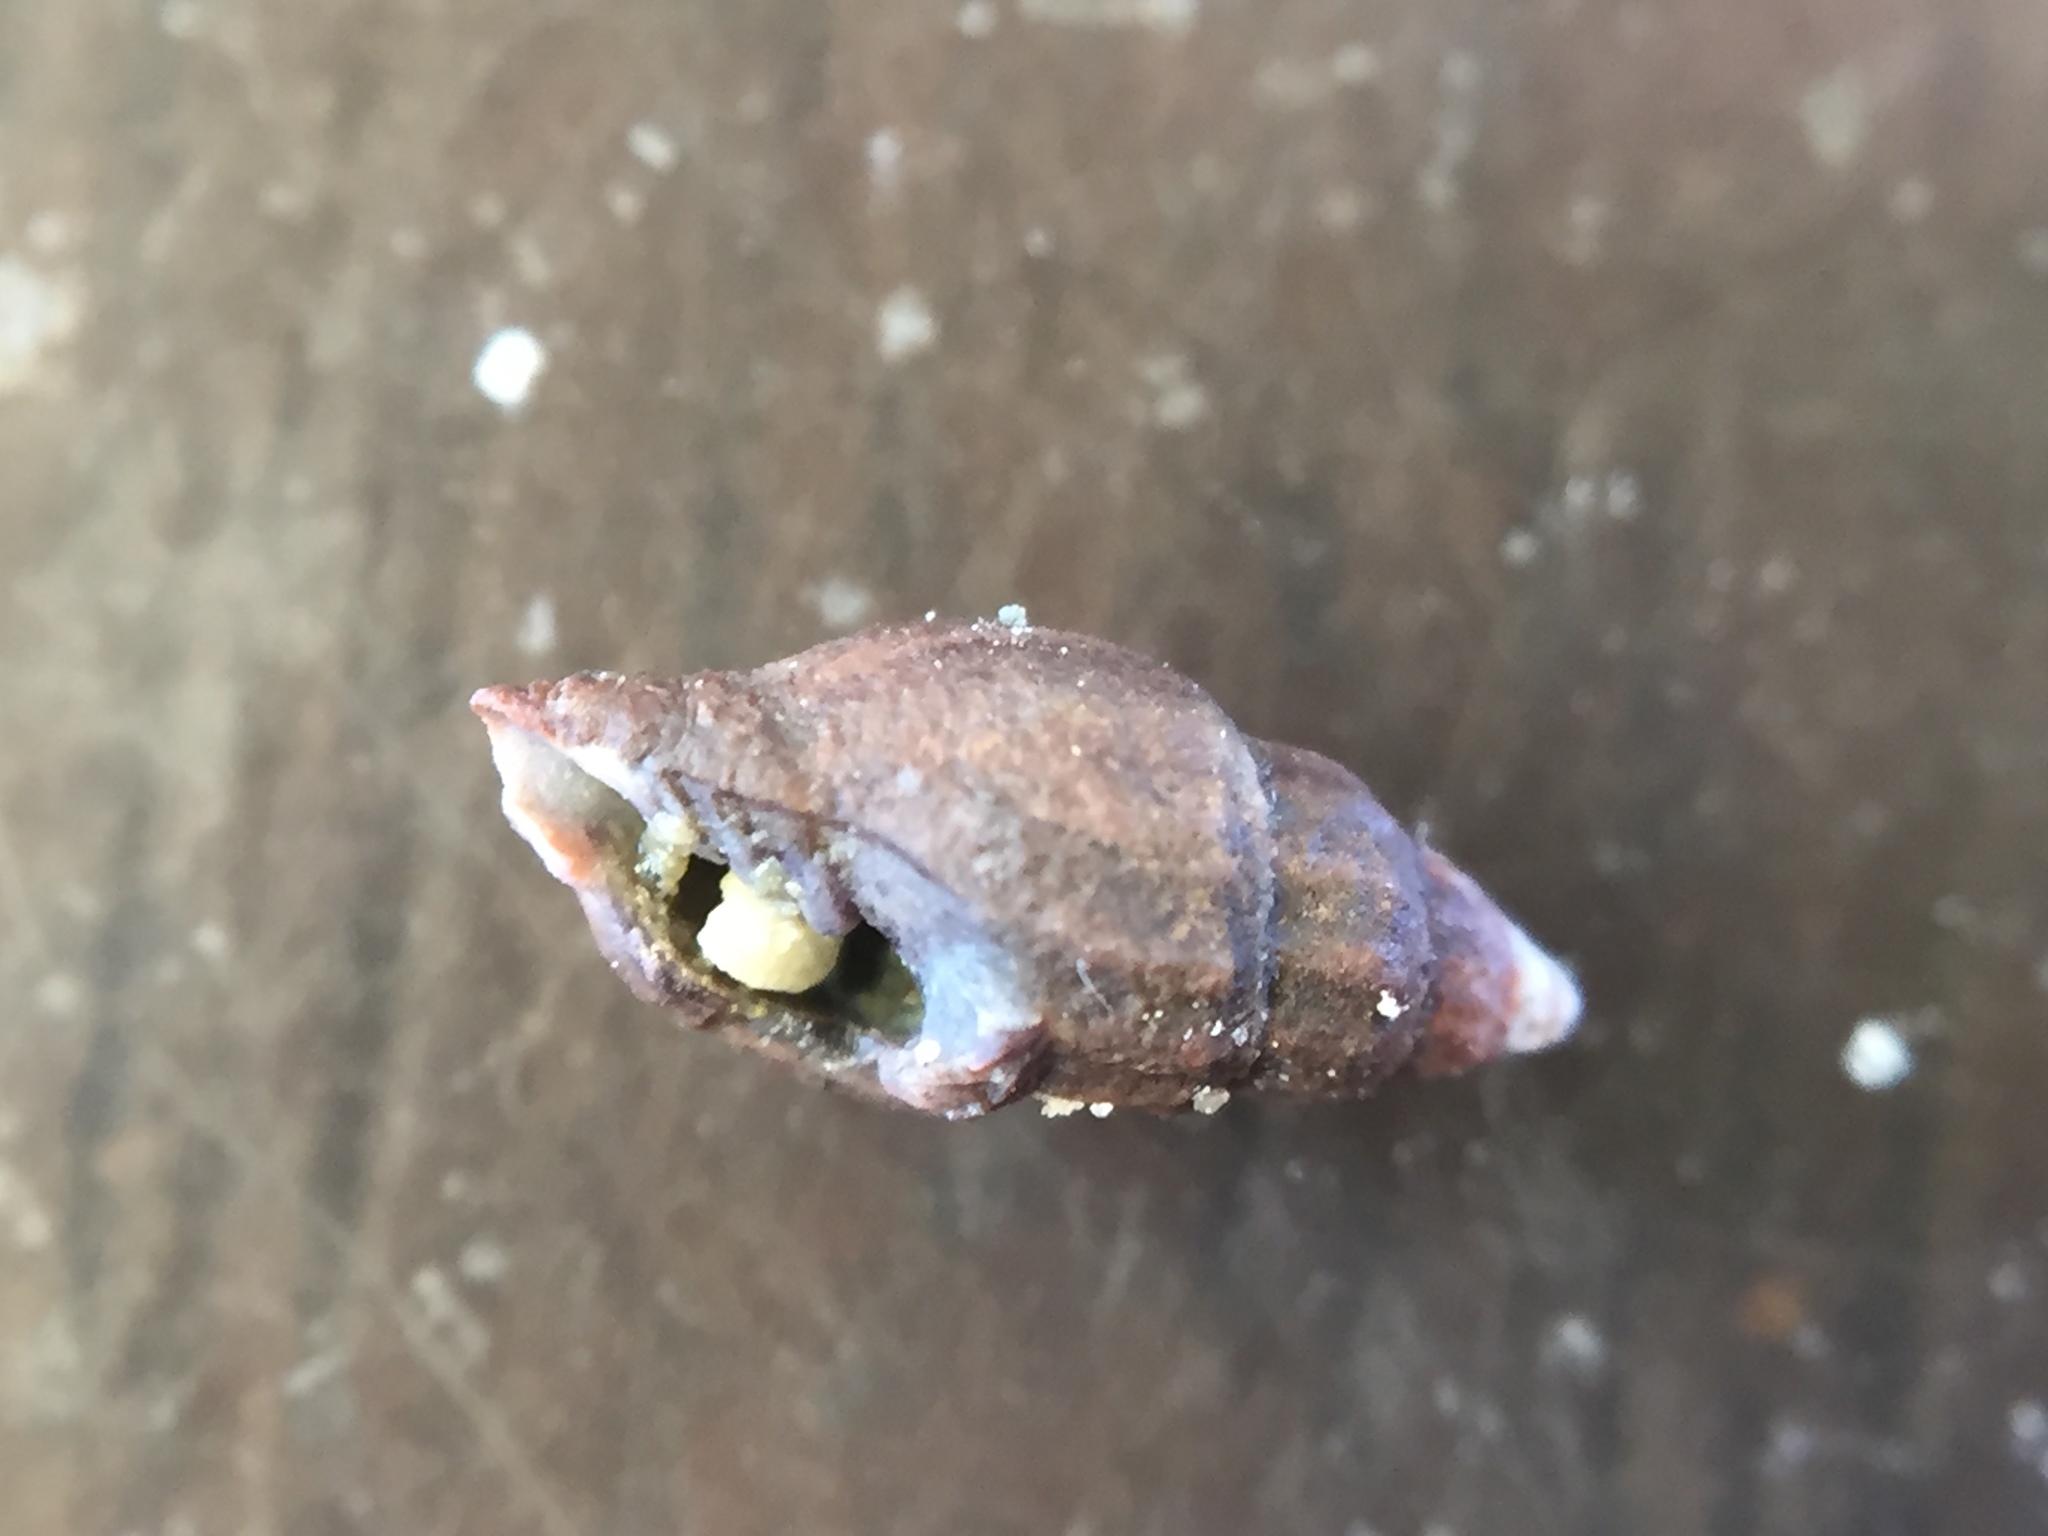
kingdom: Animalia
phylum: Mollusca
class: Gastropoda
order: Neogastropoda
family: Costellariidae
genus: Austromitra
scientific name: Austromitra rubiginosa
